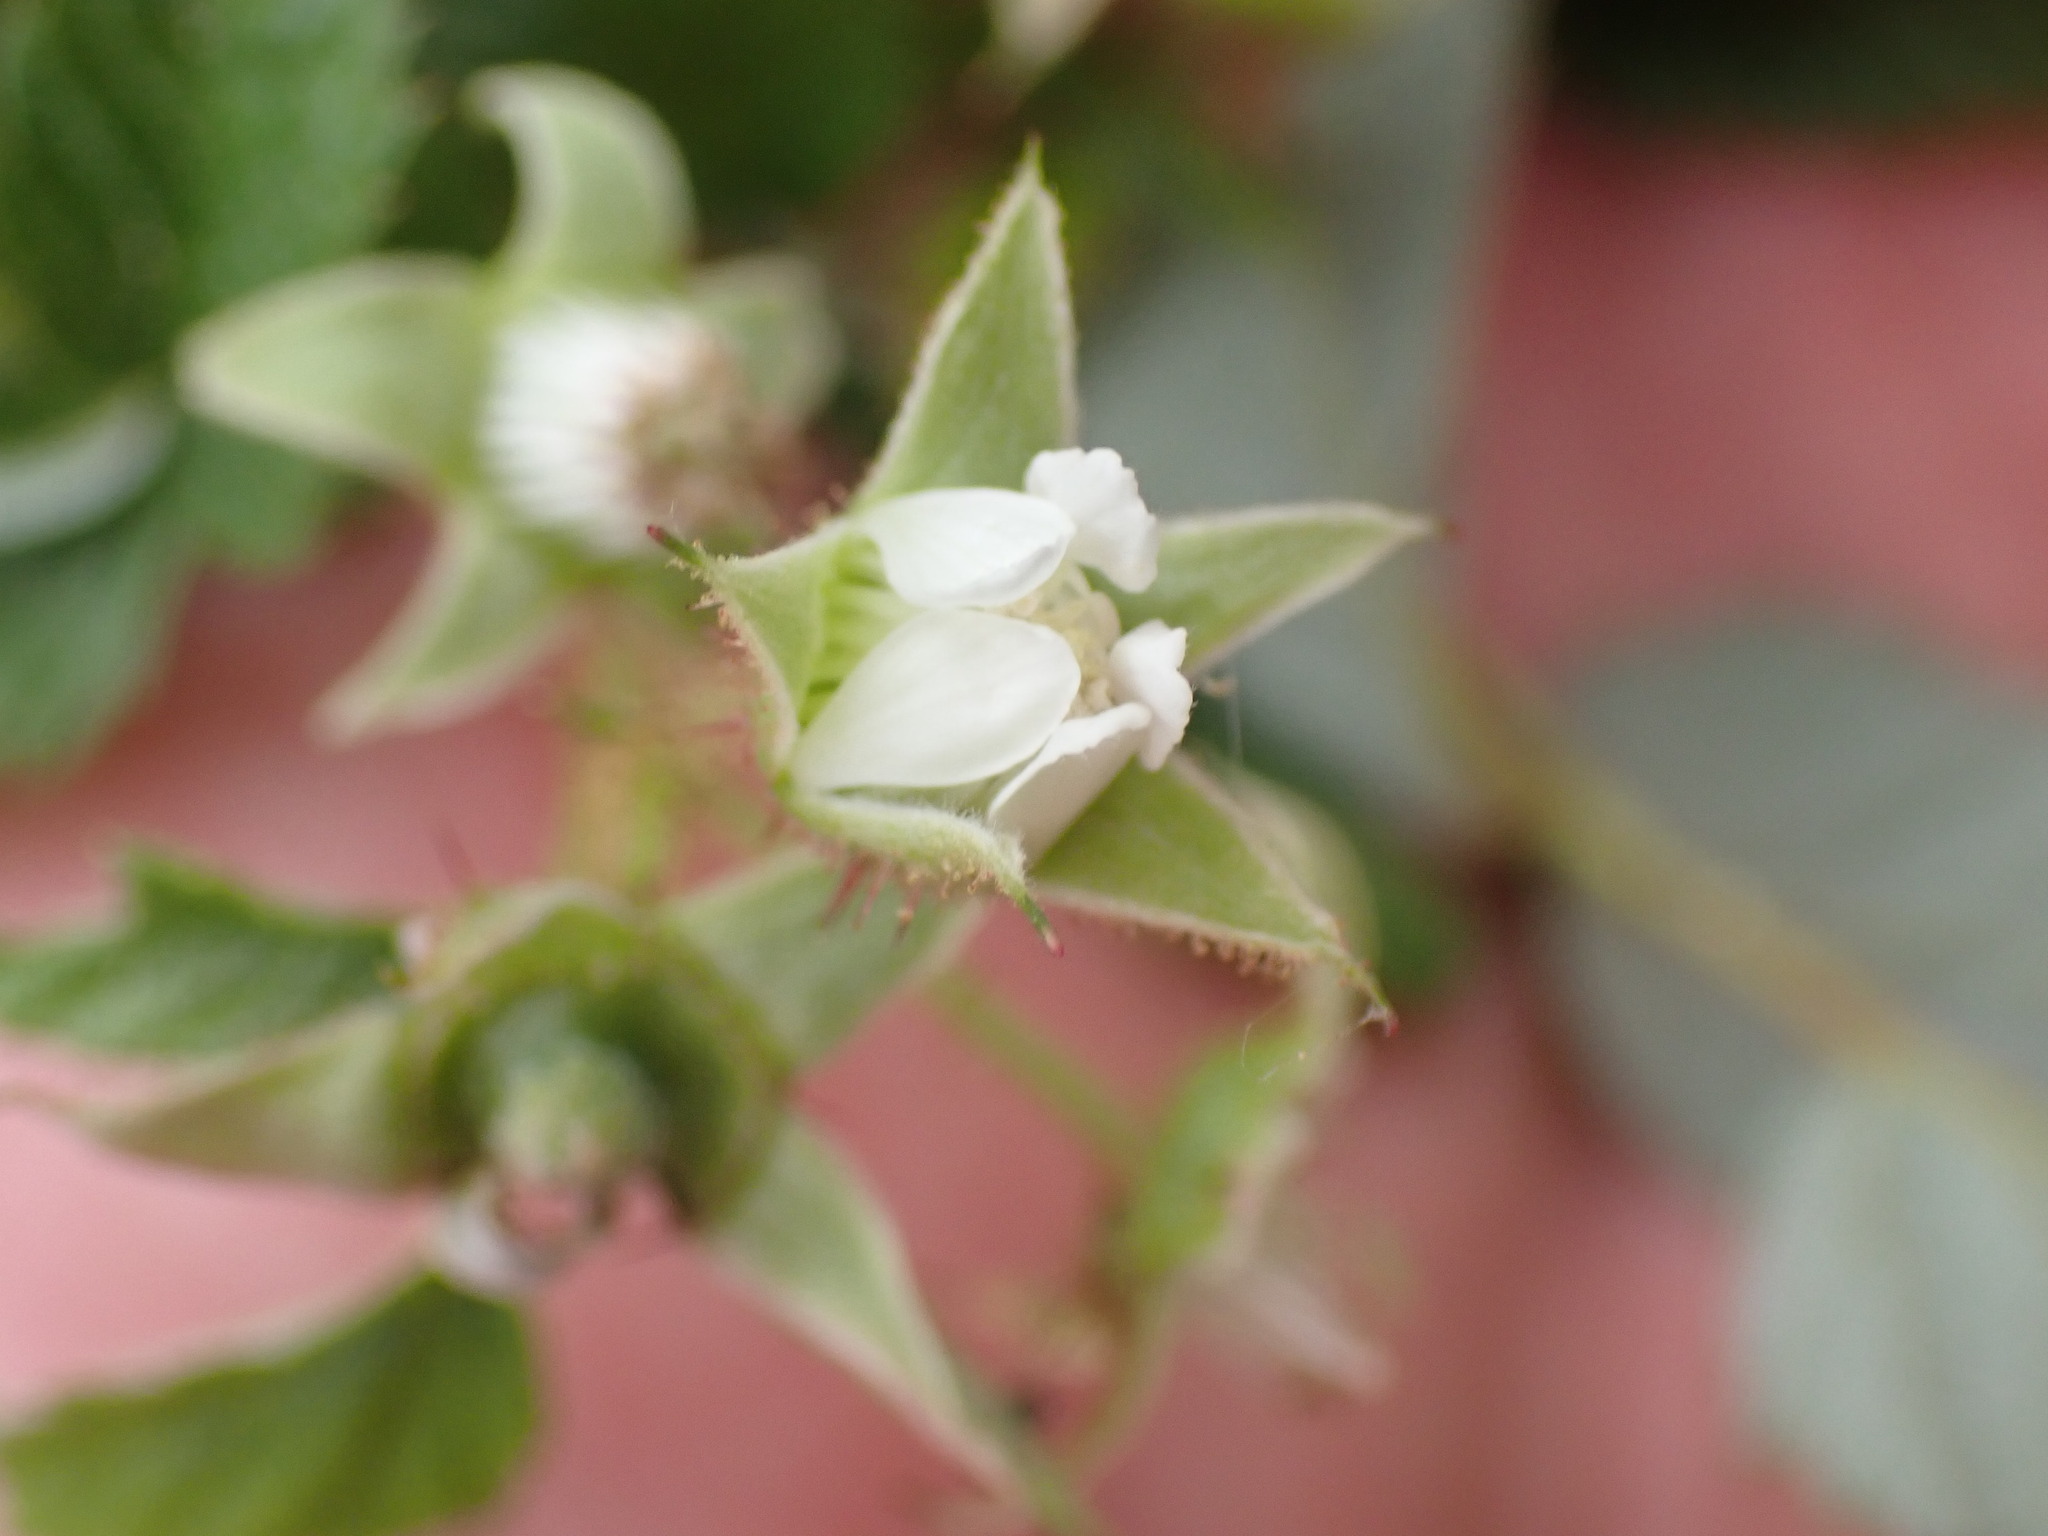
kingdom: Plantae
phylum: Tracheophyta
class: Magnoliopsida
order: Rosales
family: Rosaceae
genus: Rubus
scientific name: Rubus idaeus
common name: Raspberry
